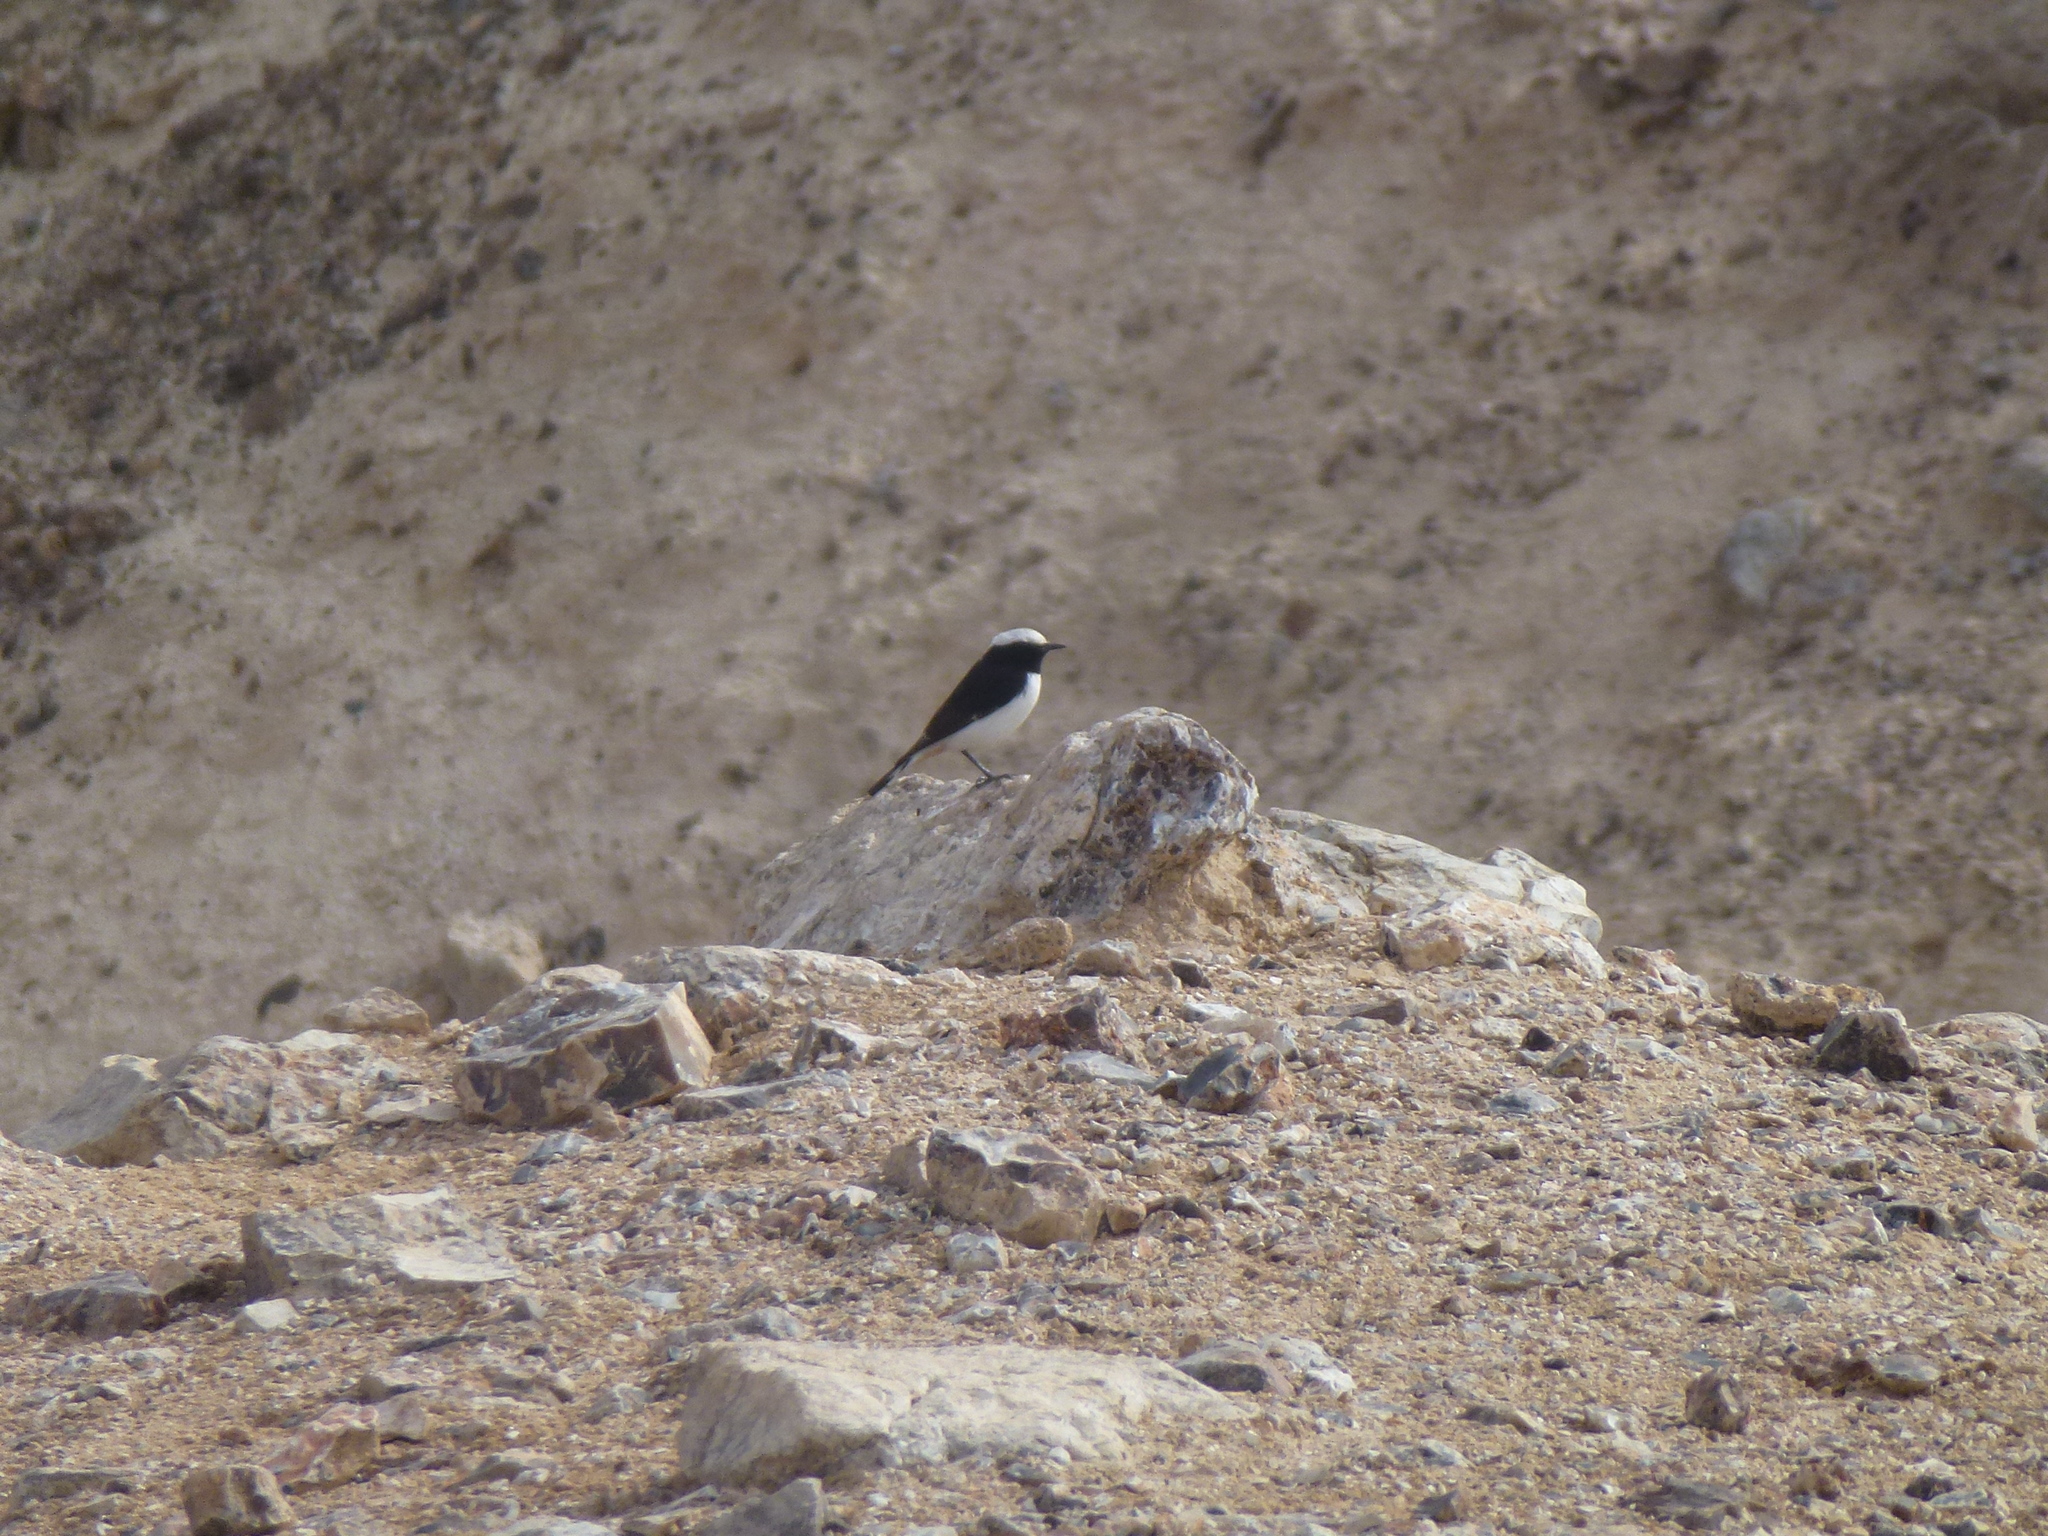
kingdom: Animalia
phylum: Chordata
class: Aves
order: Passeriformes
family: Muscicapidae
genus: Oenanthe
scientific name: Oenanthe lugens
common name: Mourning wheatear
